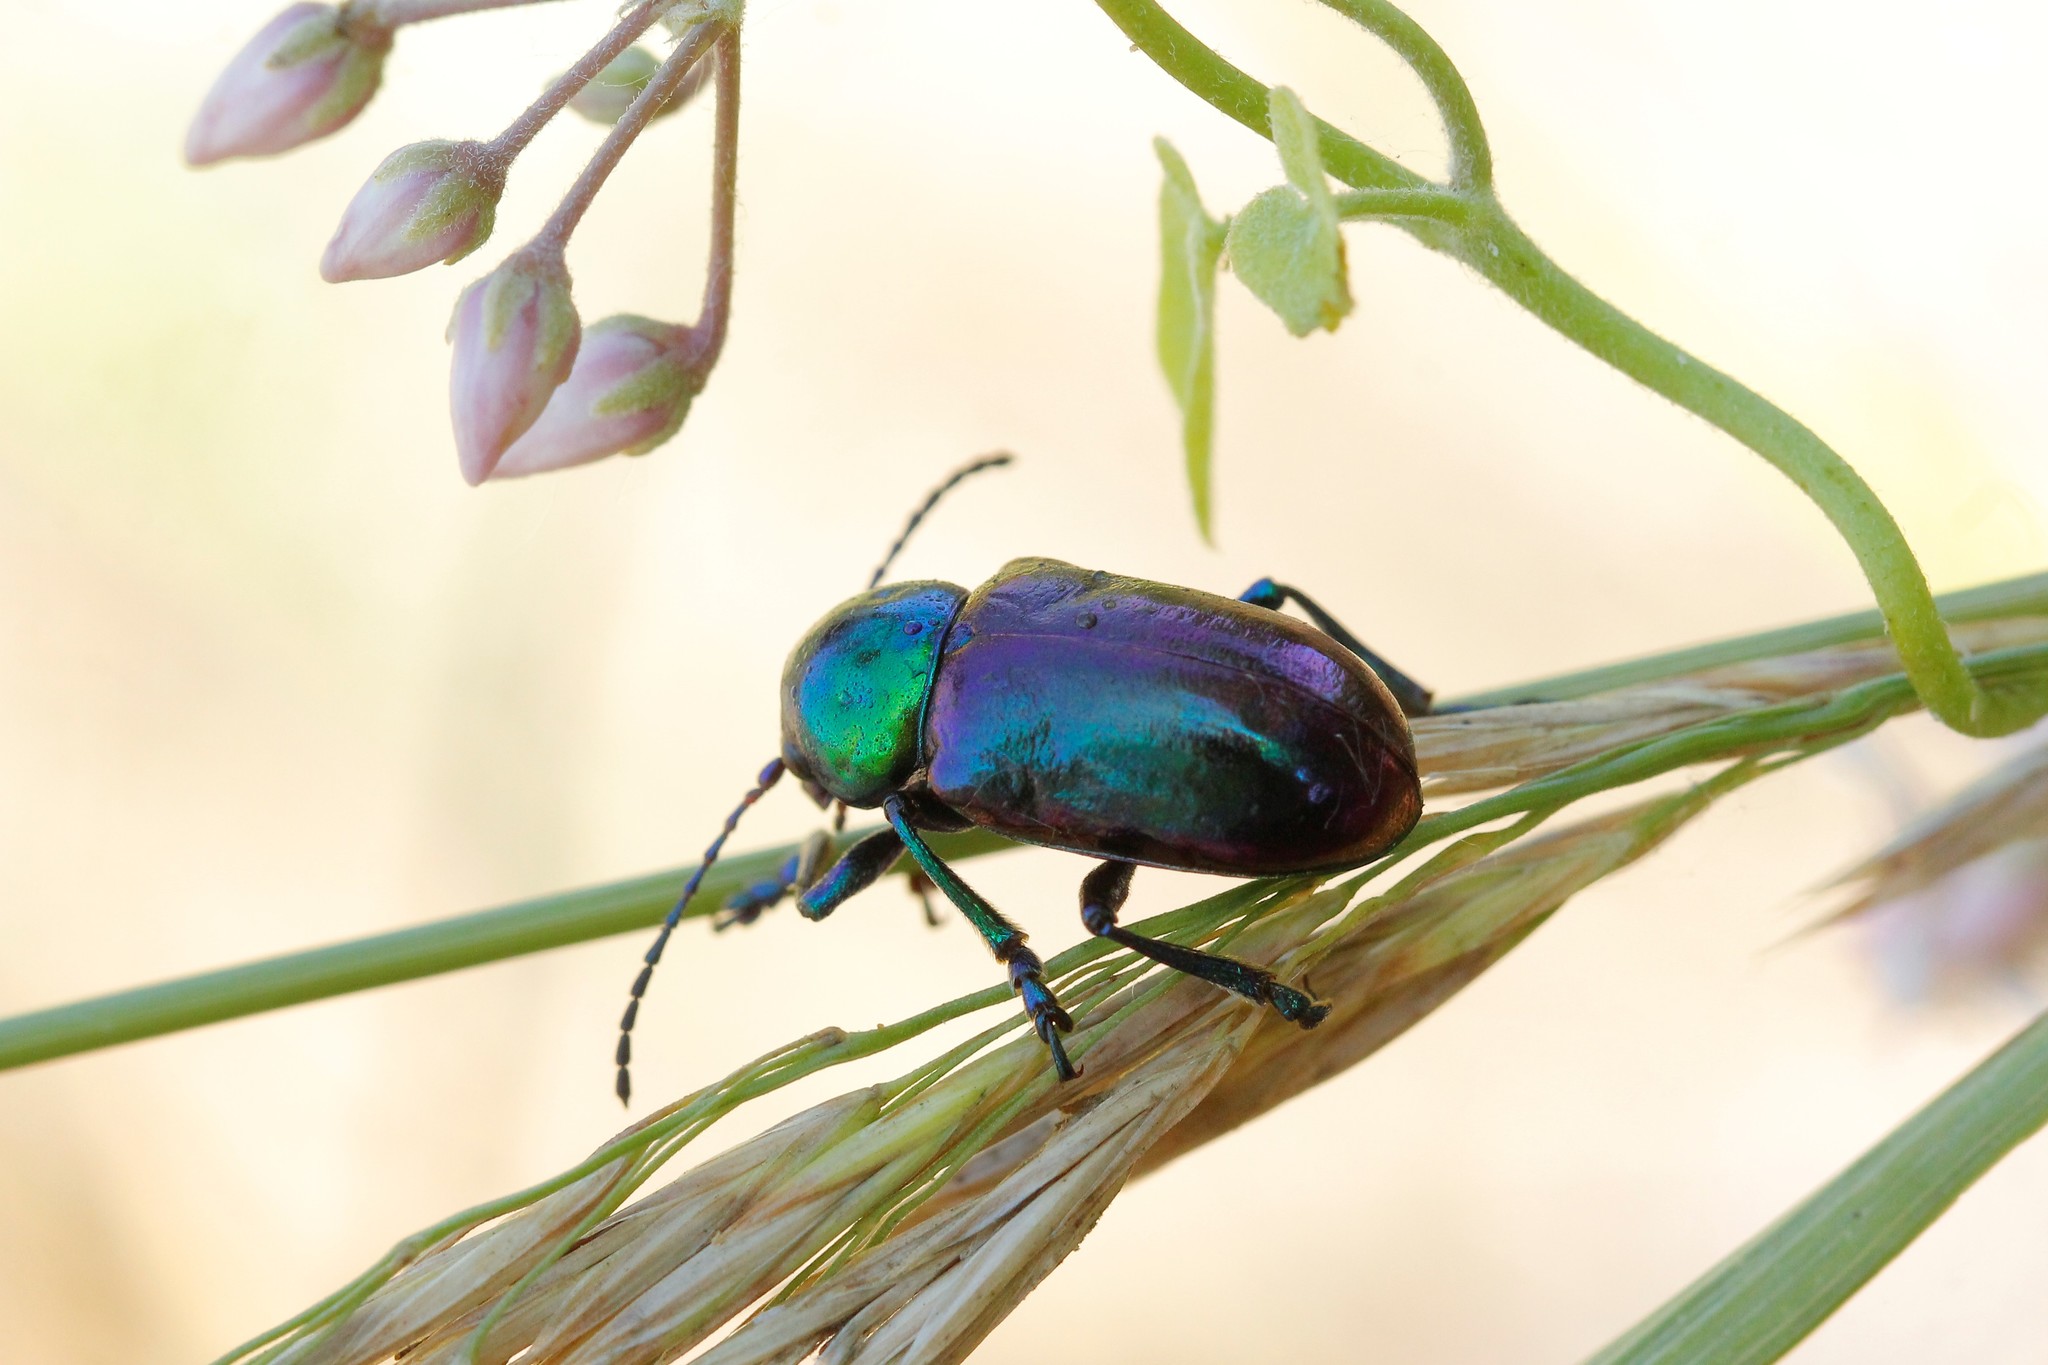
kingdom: Animalia
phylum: Arthropoda
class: Insecta
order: Coleoptera
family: Chrysomelidae
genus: Chrysochares
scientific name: Chrysochares
